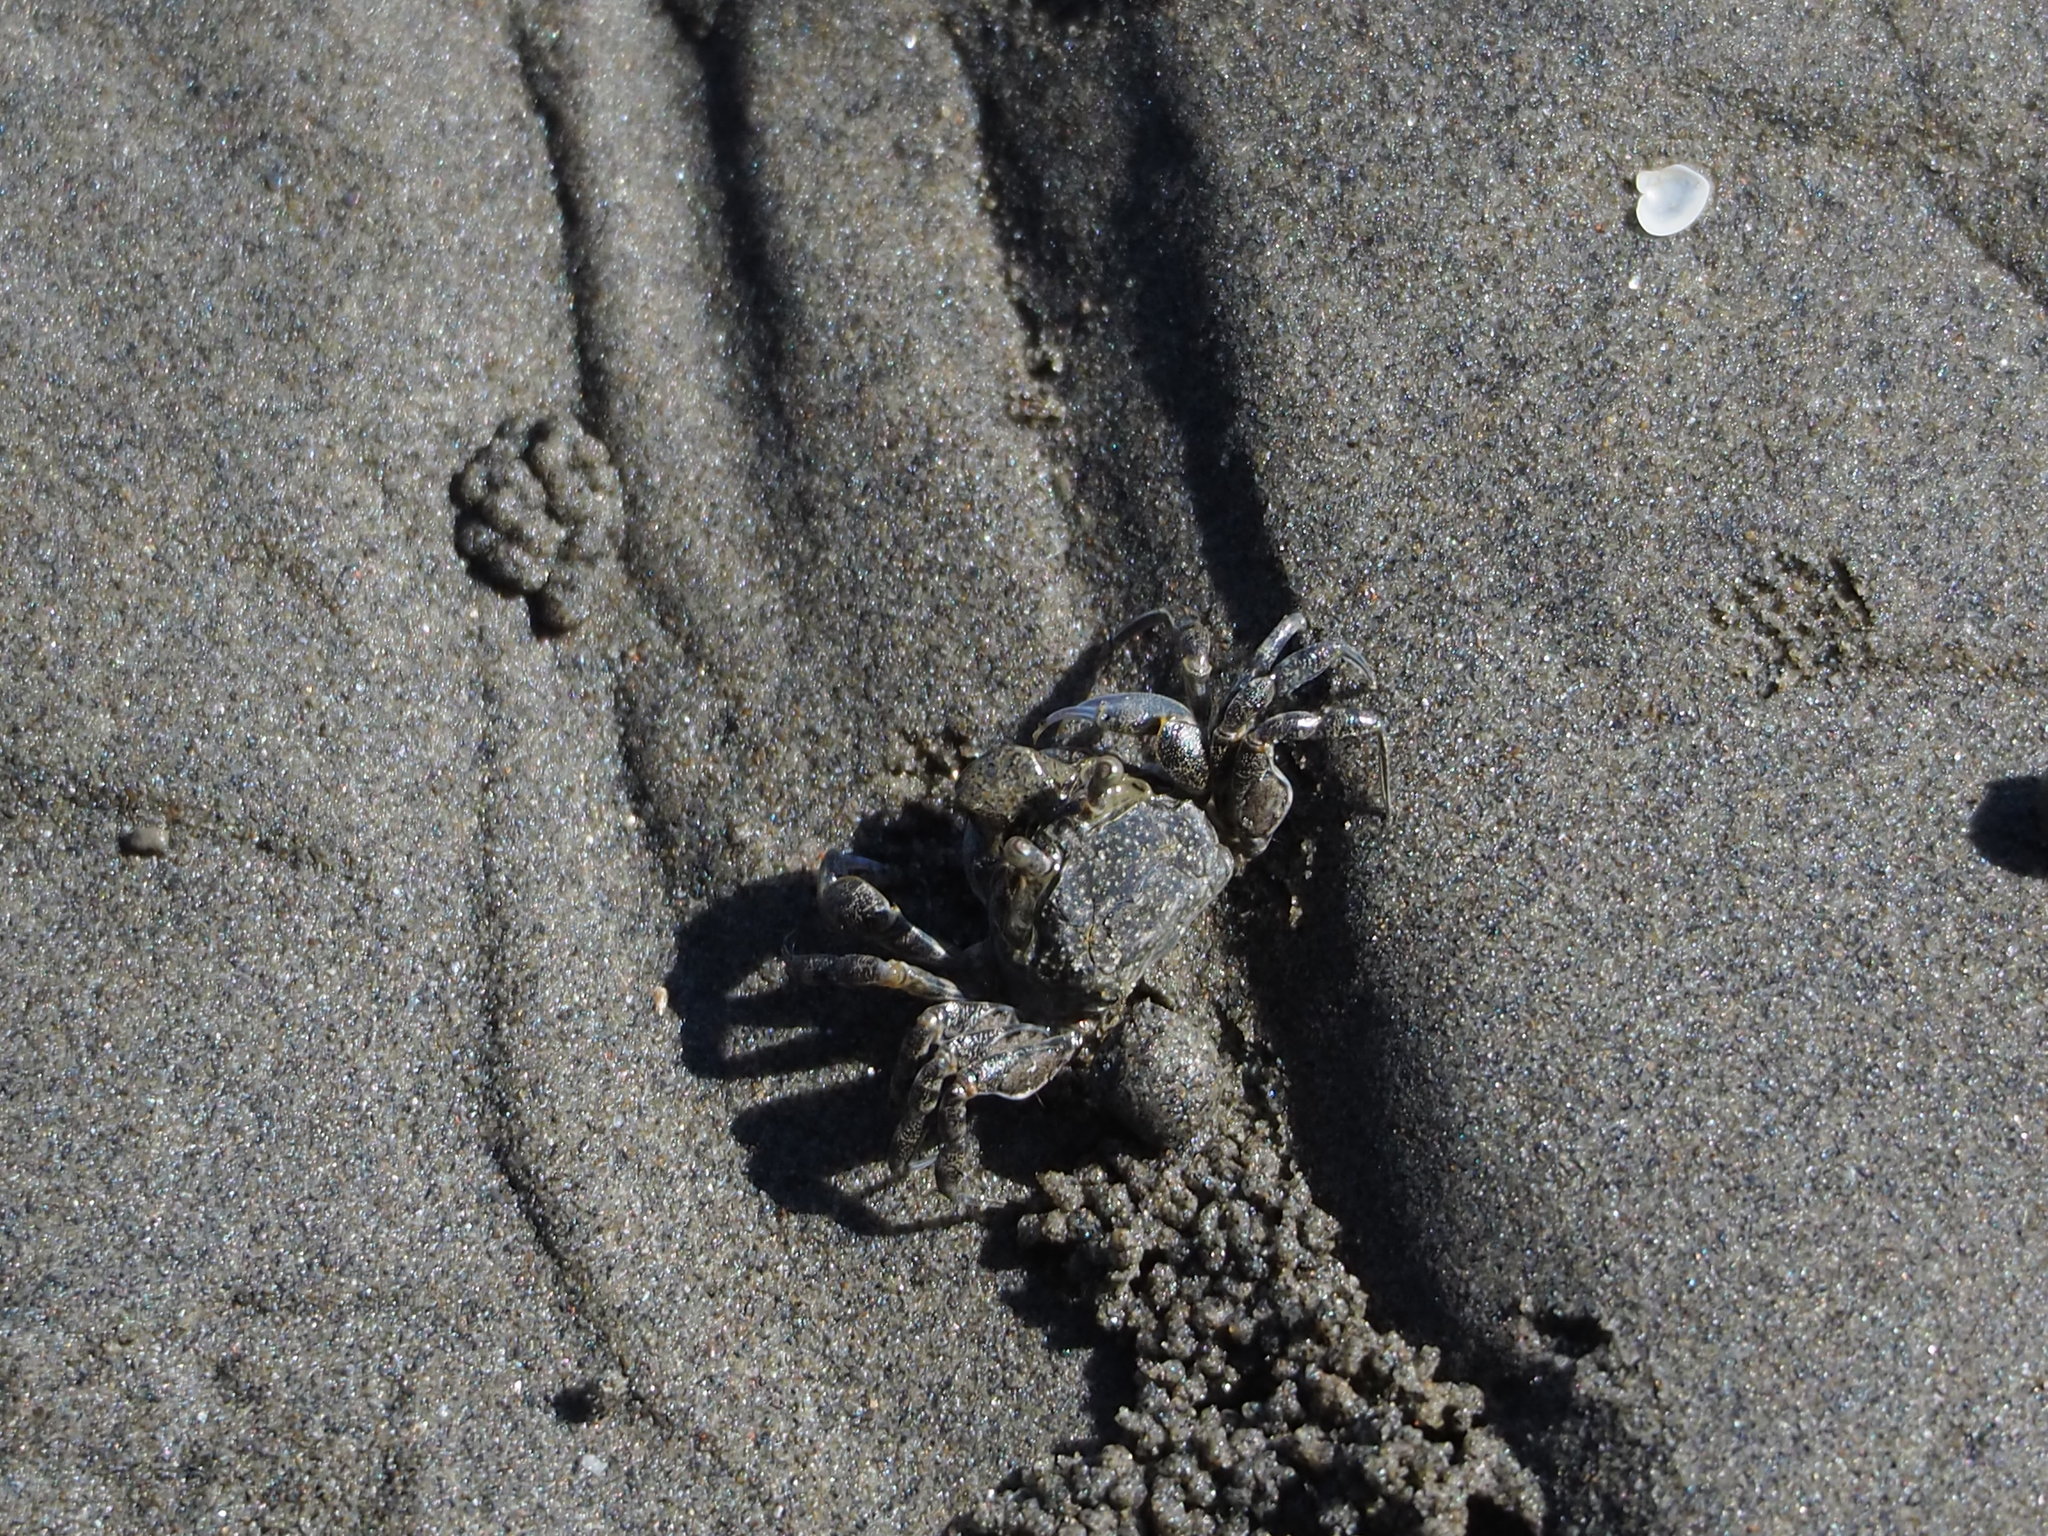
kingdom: Animalia
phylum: Arthropoda
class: Malacostraca
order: Decapoda
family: Dotillidae
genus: Scopimera
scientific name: Scopimera bitympana
